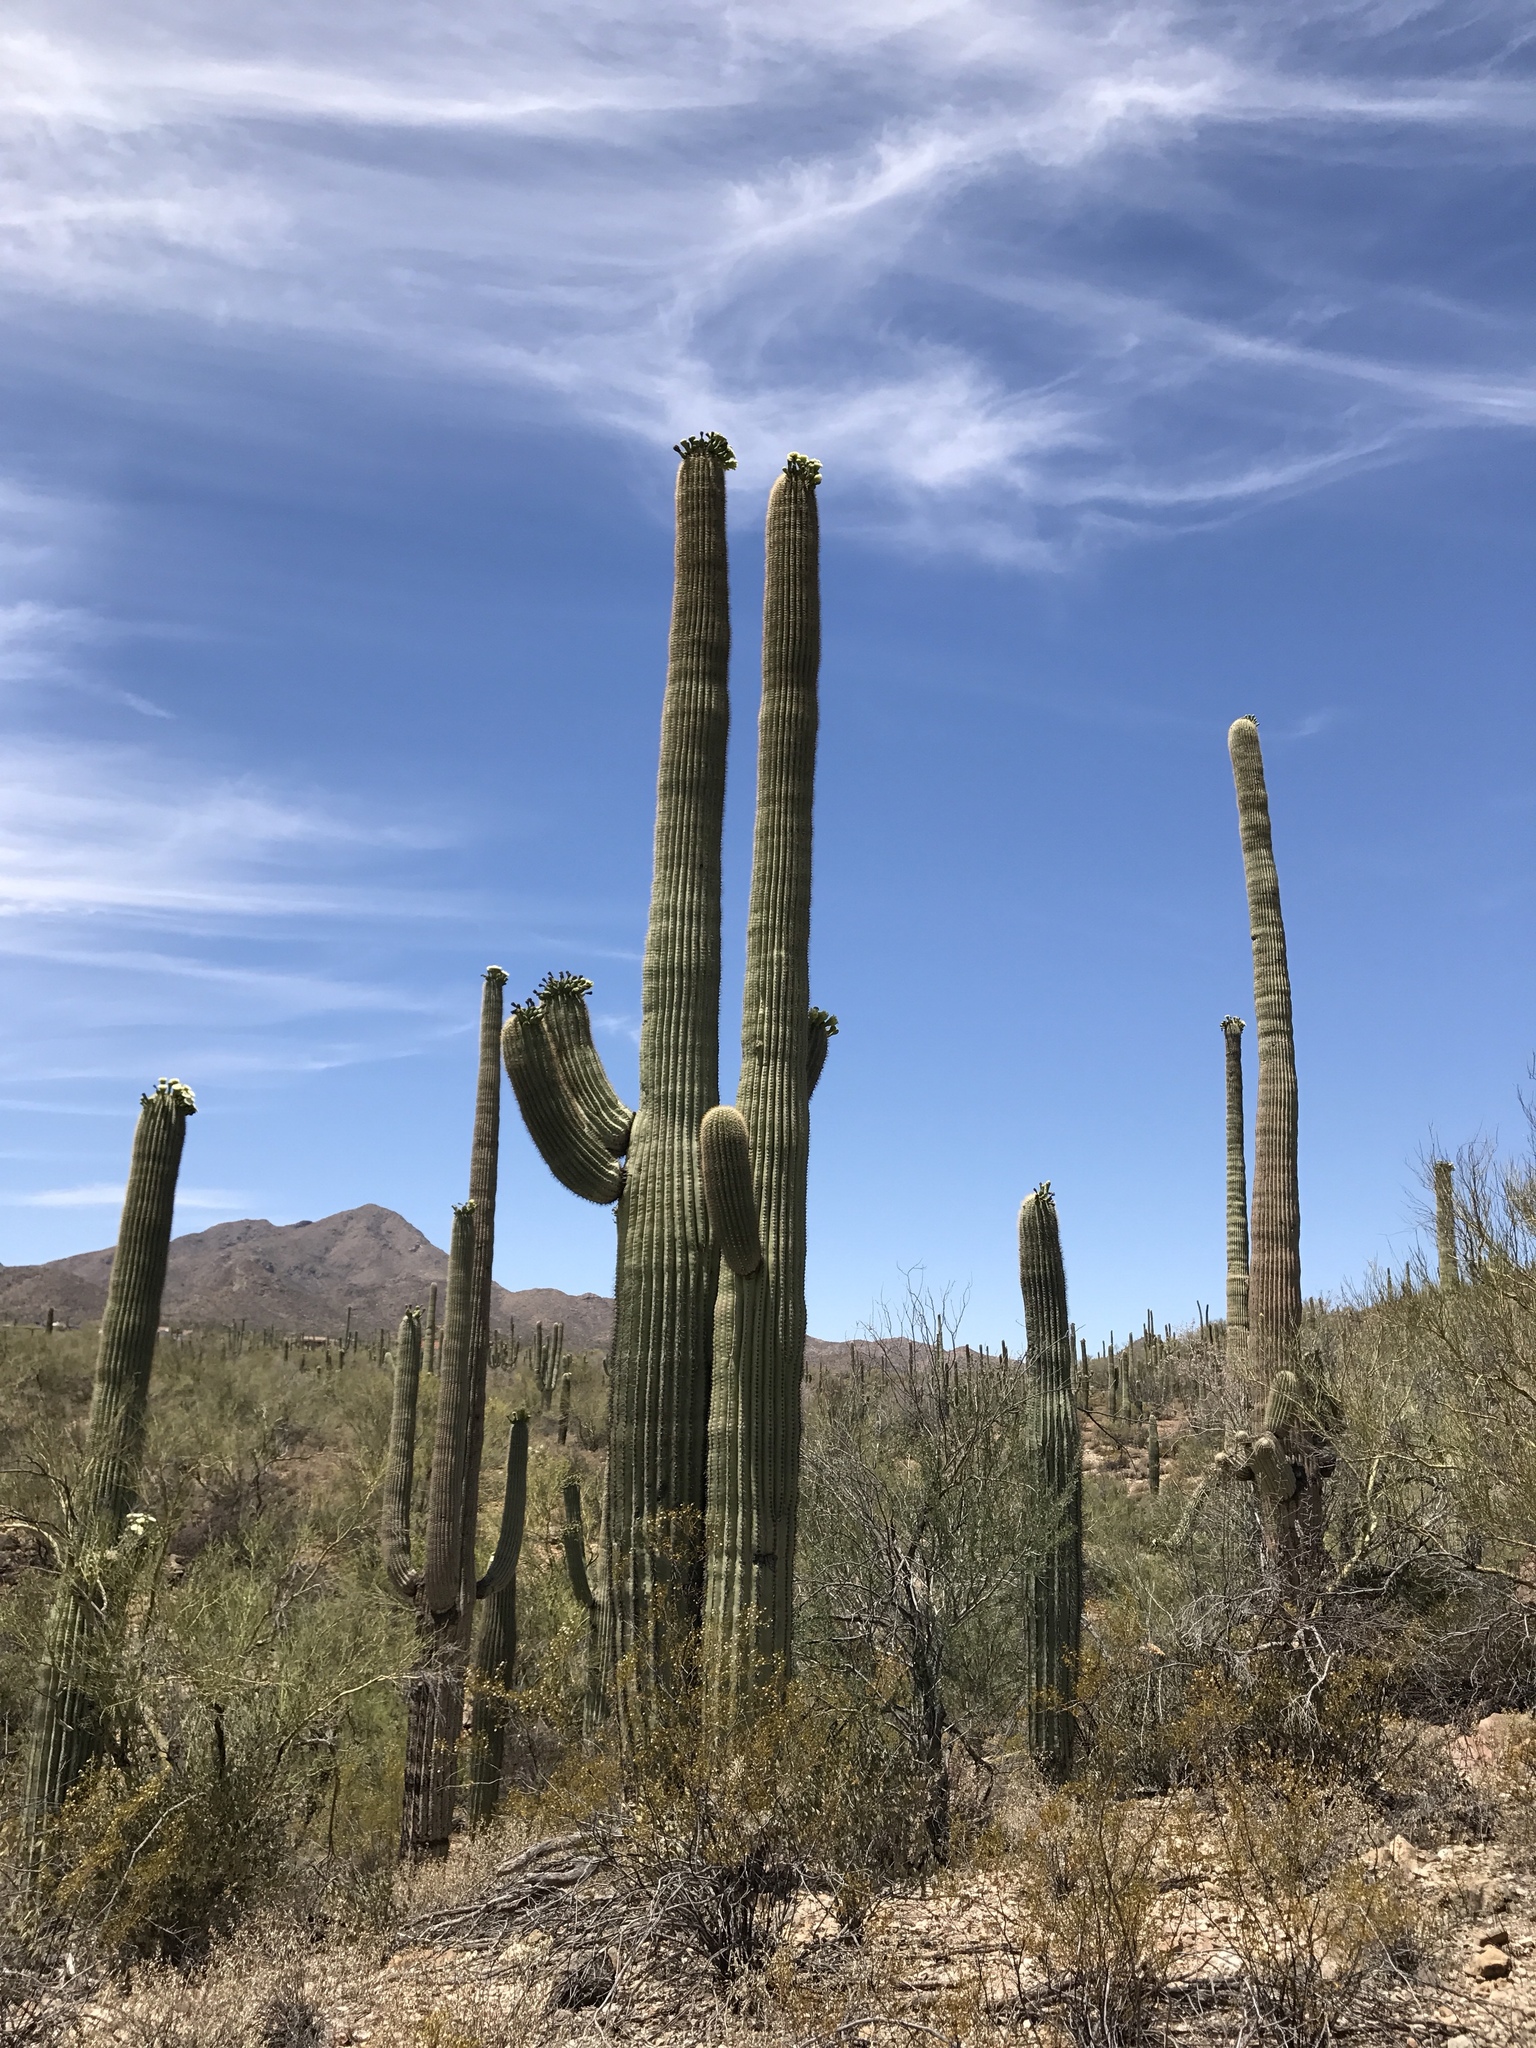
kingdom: Plantae
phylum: Tracheophyta
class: Magnoliopsida
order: Caryophyllales
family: Cactaceae
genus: Carnegiea
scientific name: Carnegiea gigantea
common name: Saguaro
